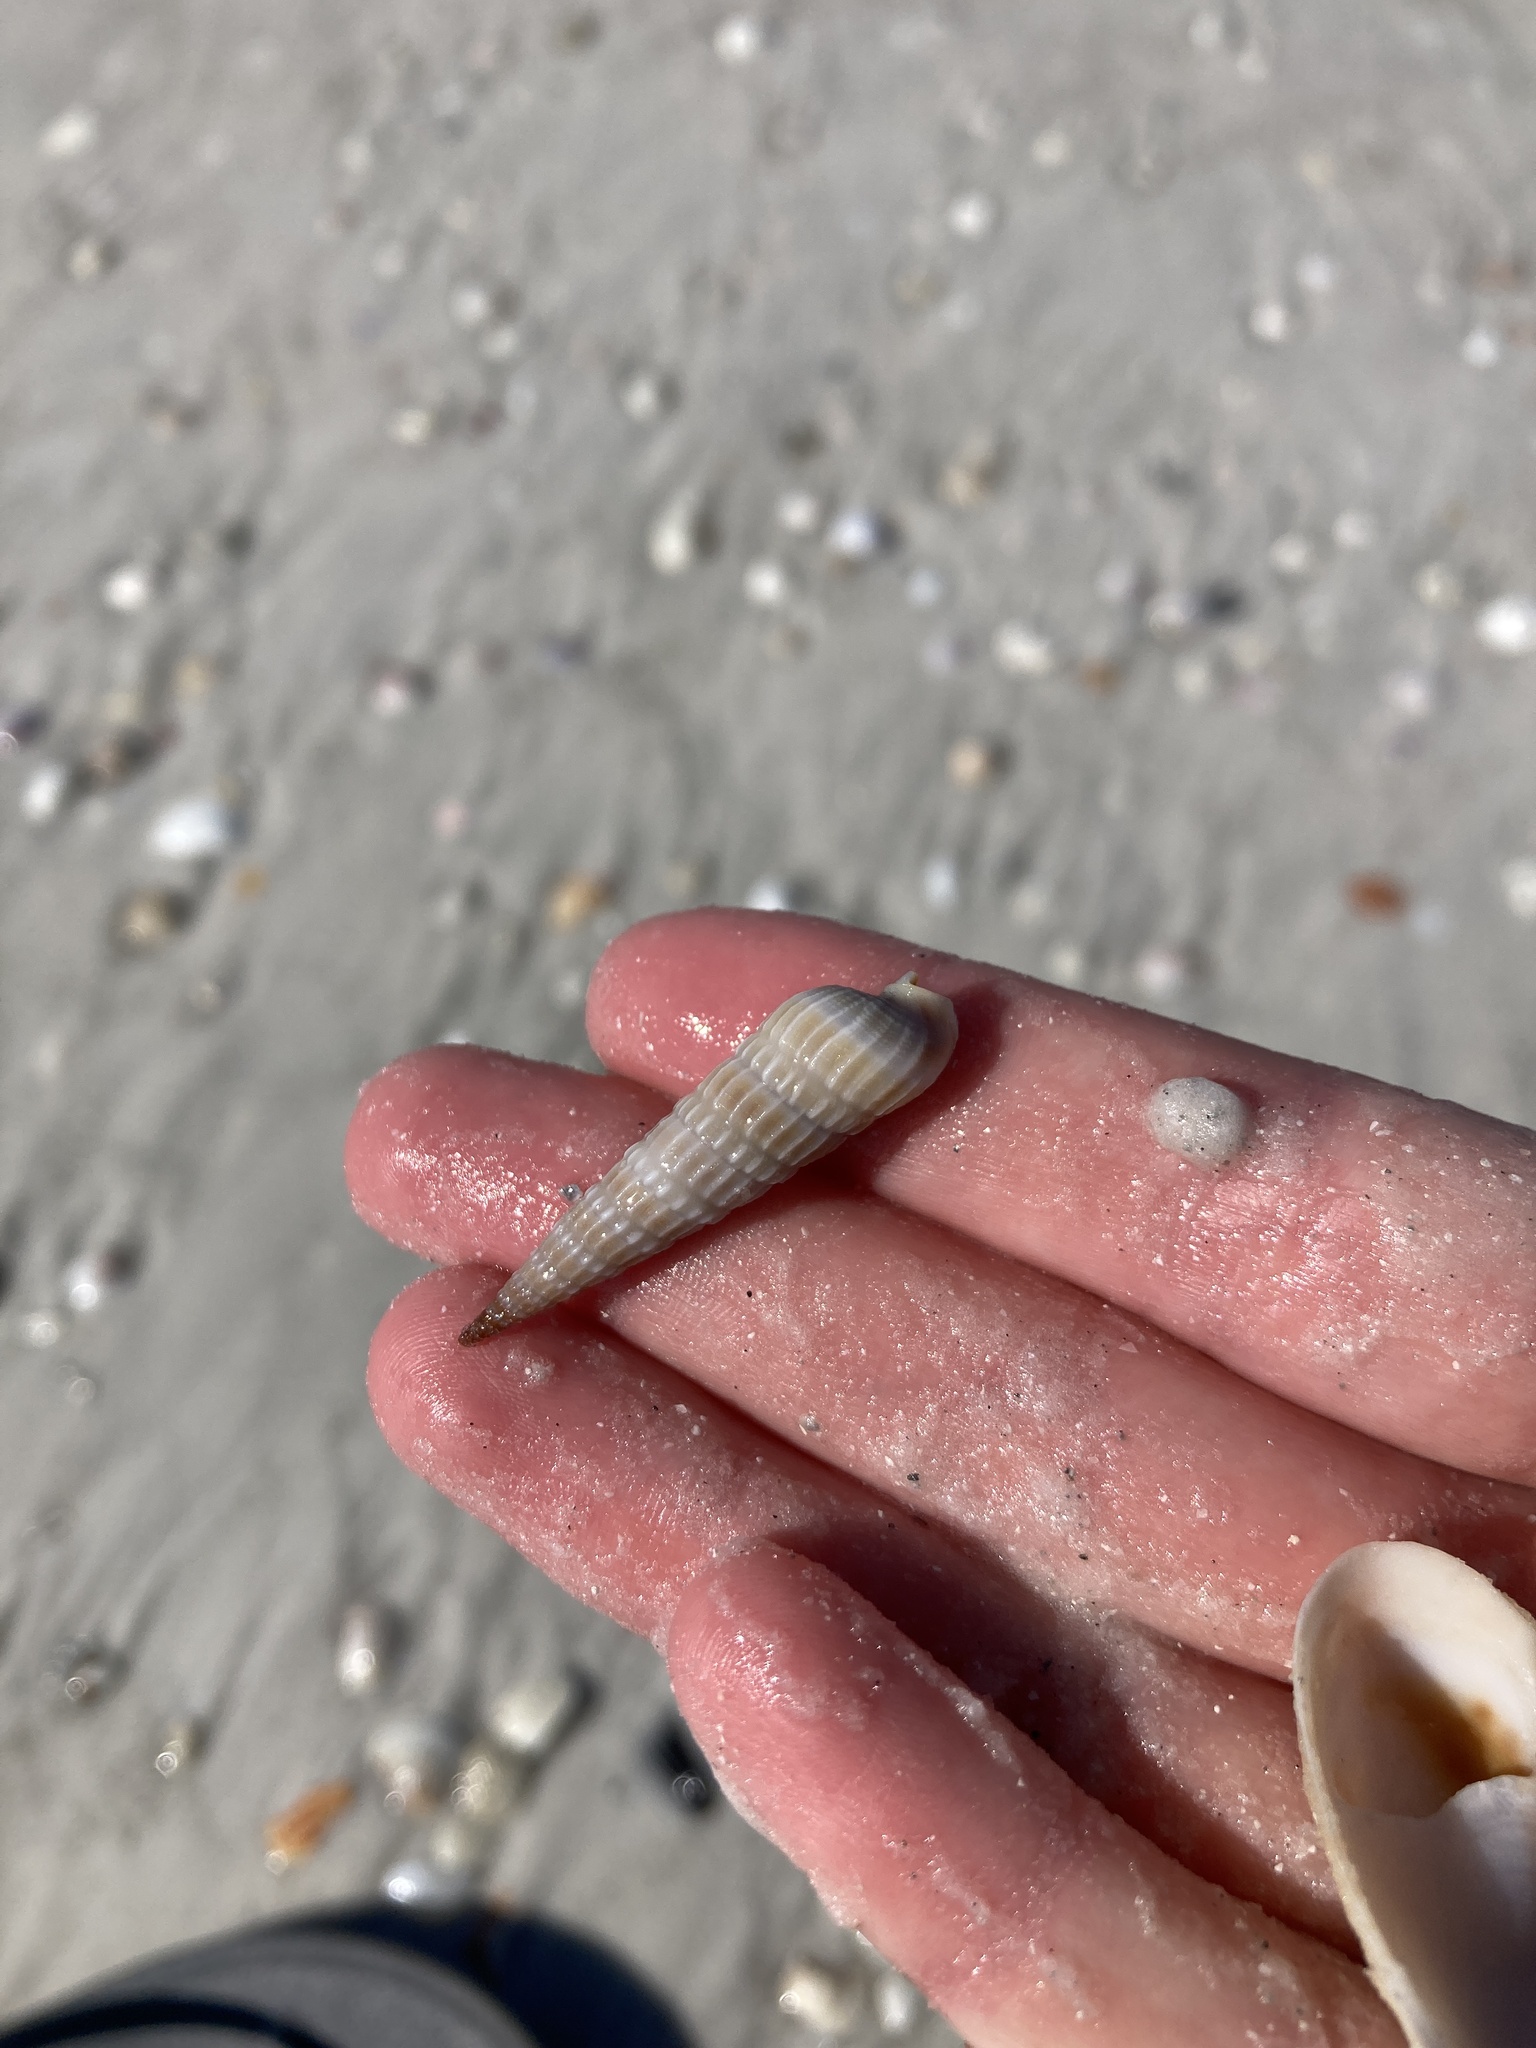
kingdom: Animalia
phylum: Mollusca
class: Gastropoda
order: Neogastropoda
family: Terebridae
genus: Neoterebra
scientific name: Neoterebra dislocata
